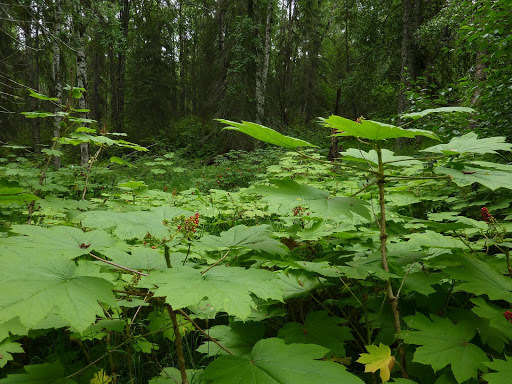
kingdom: Plantae
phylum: Tracheophyta
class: Magnoliopsida
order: Apiales
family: Araliaceae
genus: Oplopanax
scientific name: Oplopanax horridus
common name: Devil's walking-stick
